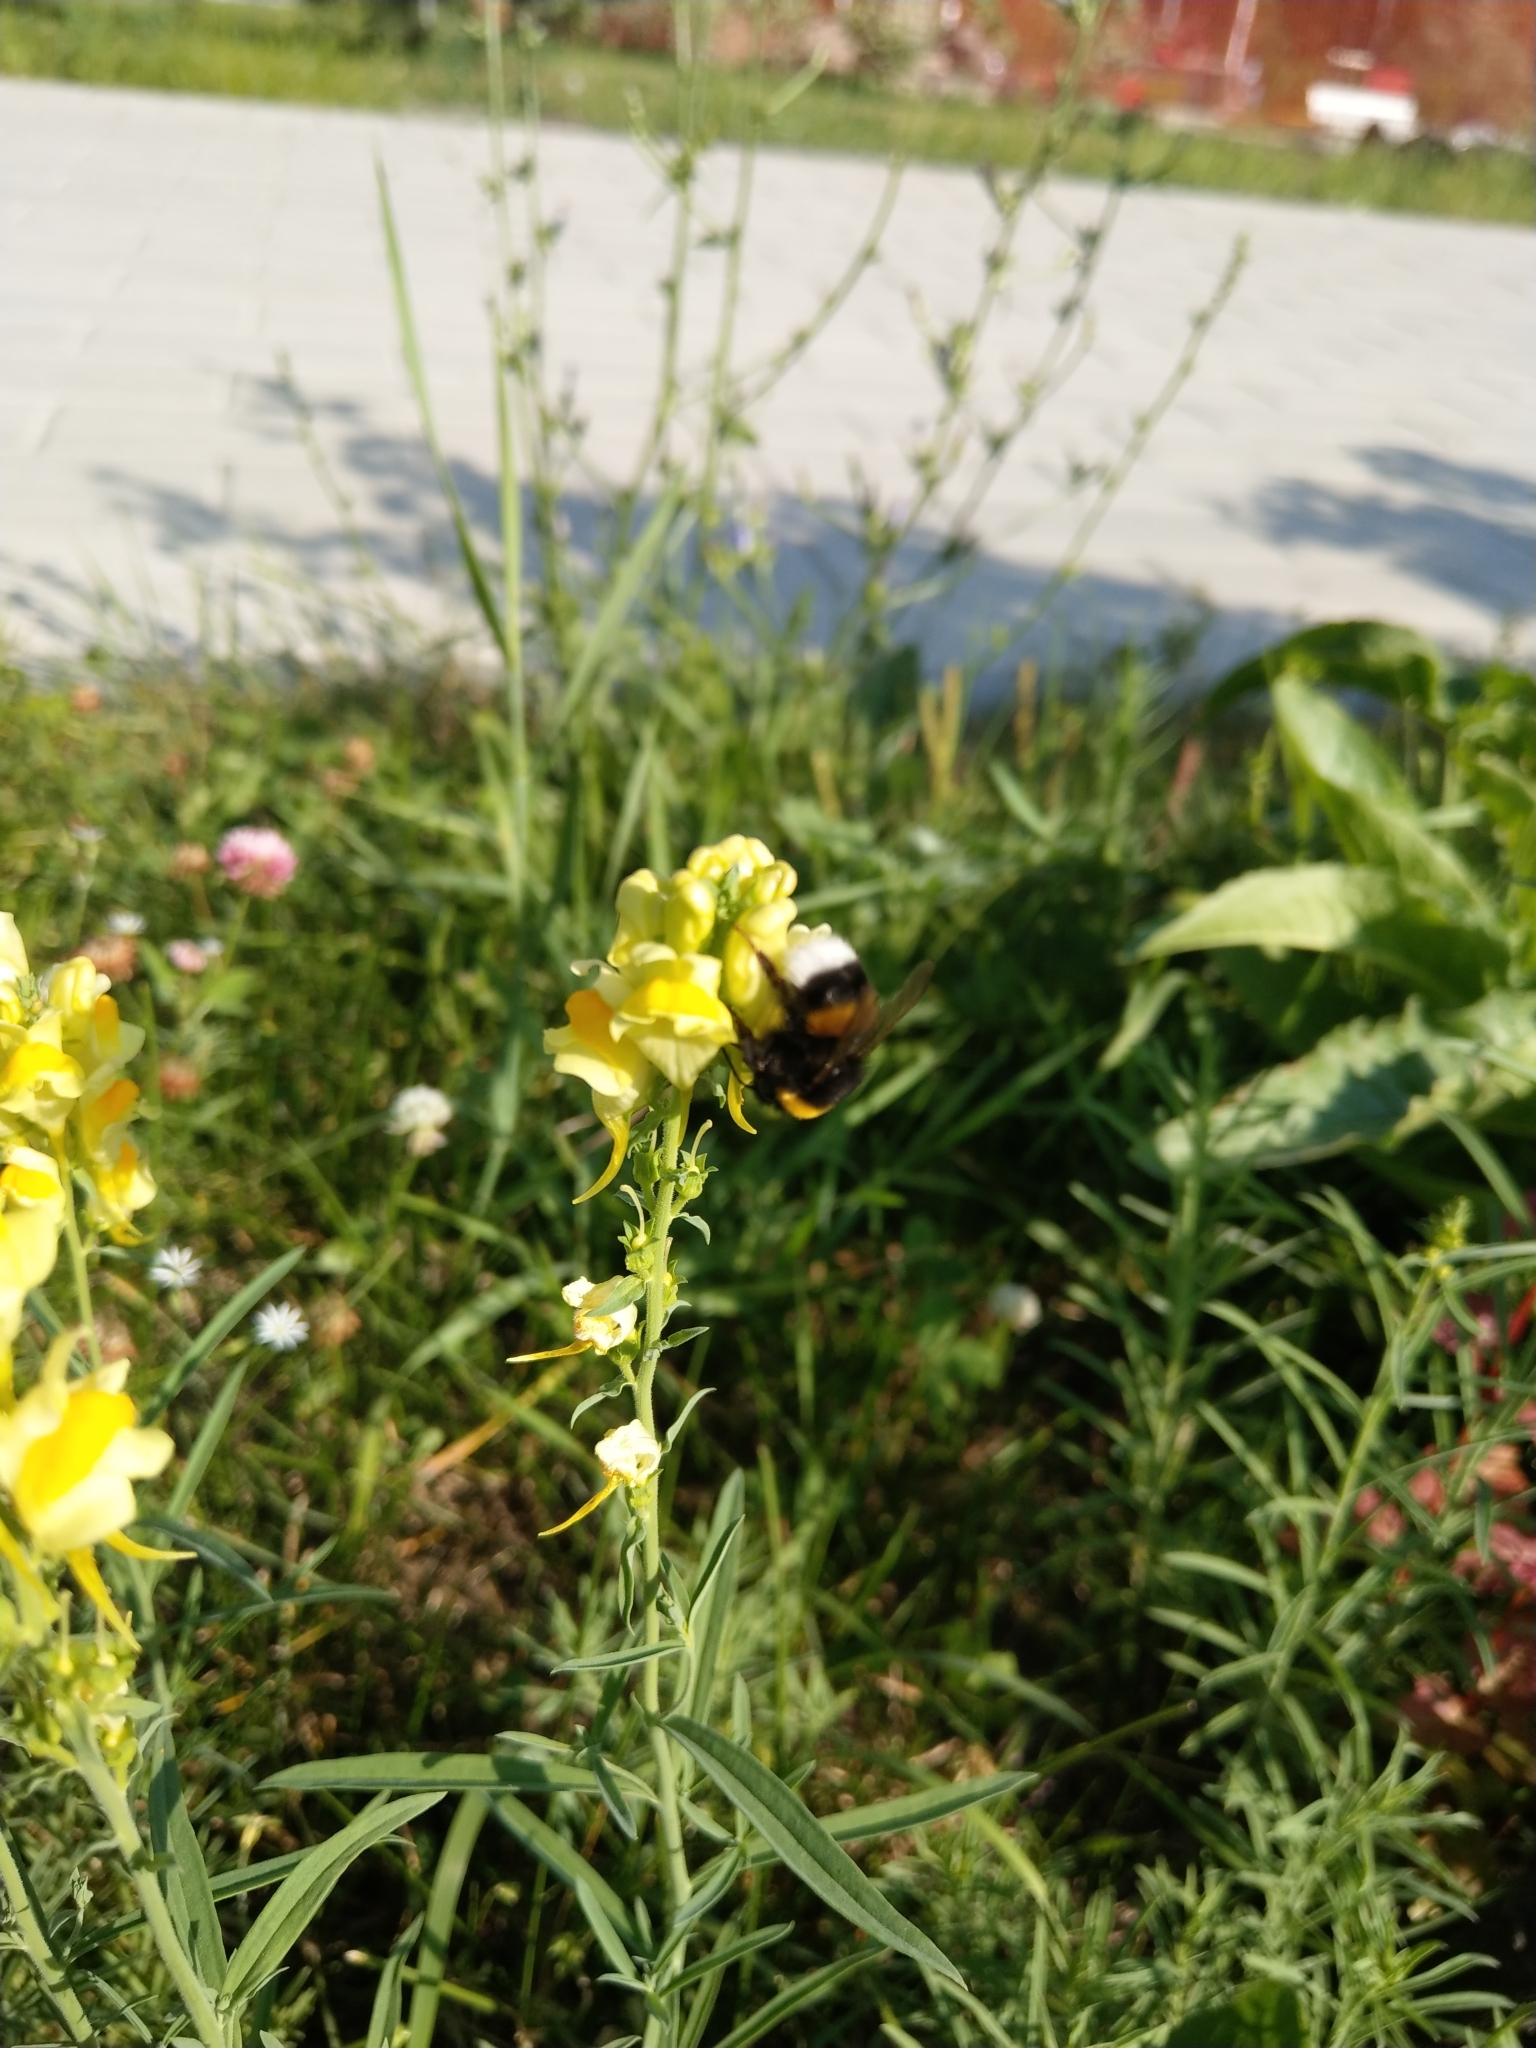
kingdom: Animalia
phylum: Arthropoda
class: Insecta
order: Hymenoptera
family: Apidae
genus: Bombus
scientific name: Bombus
